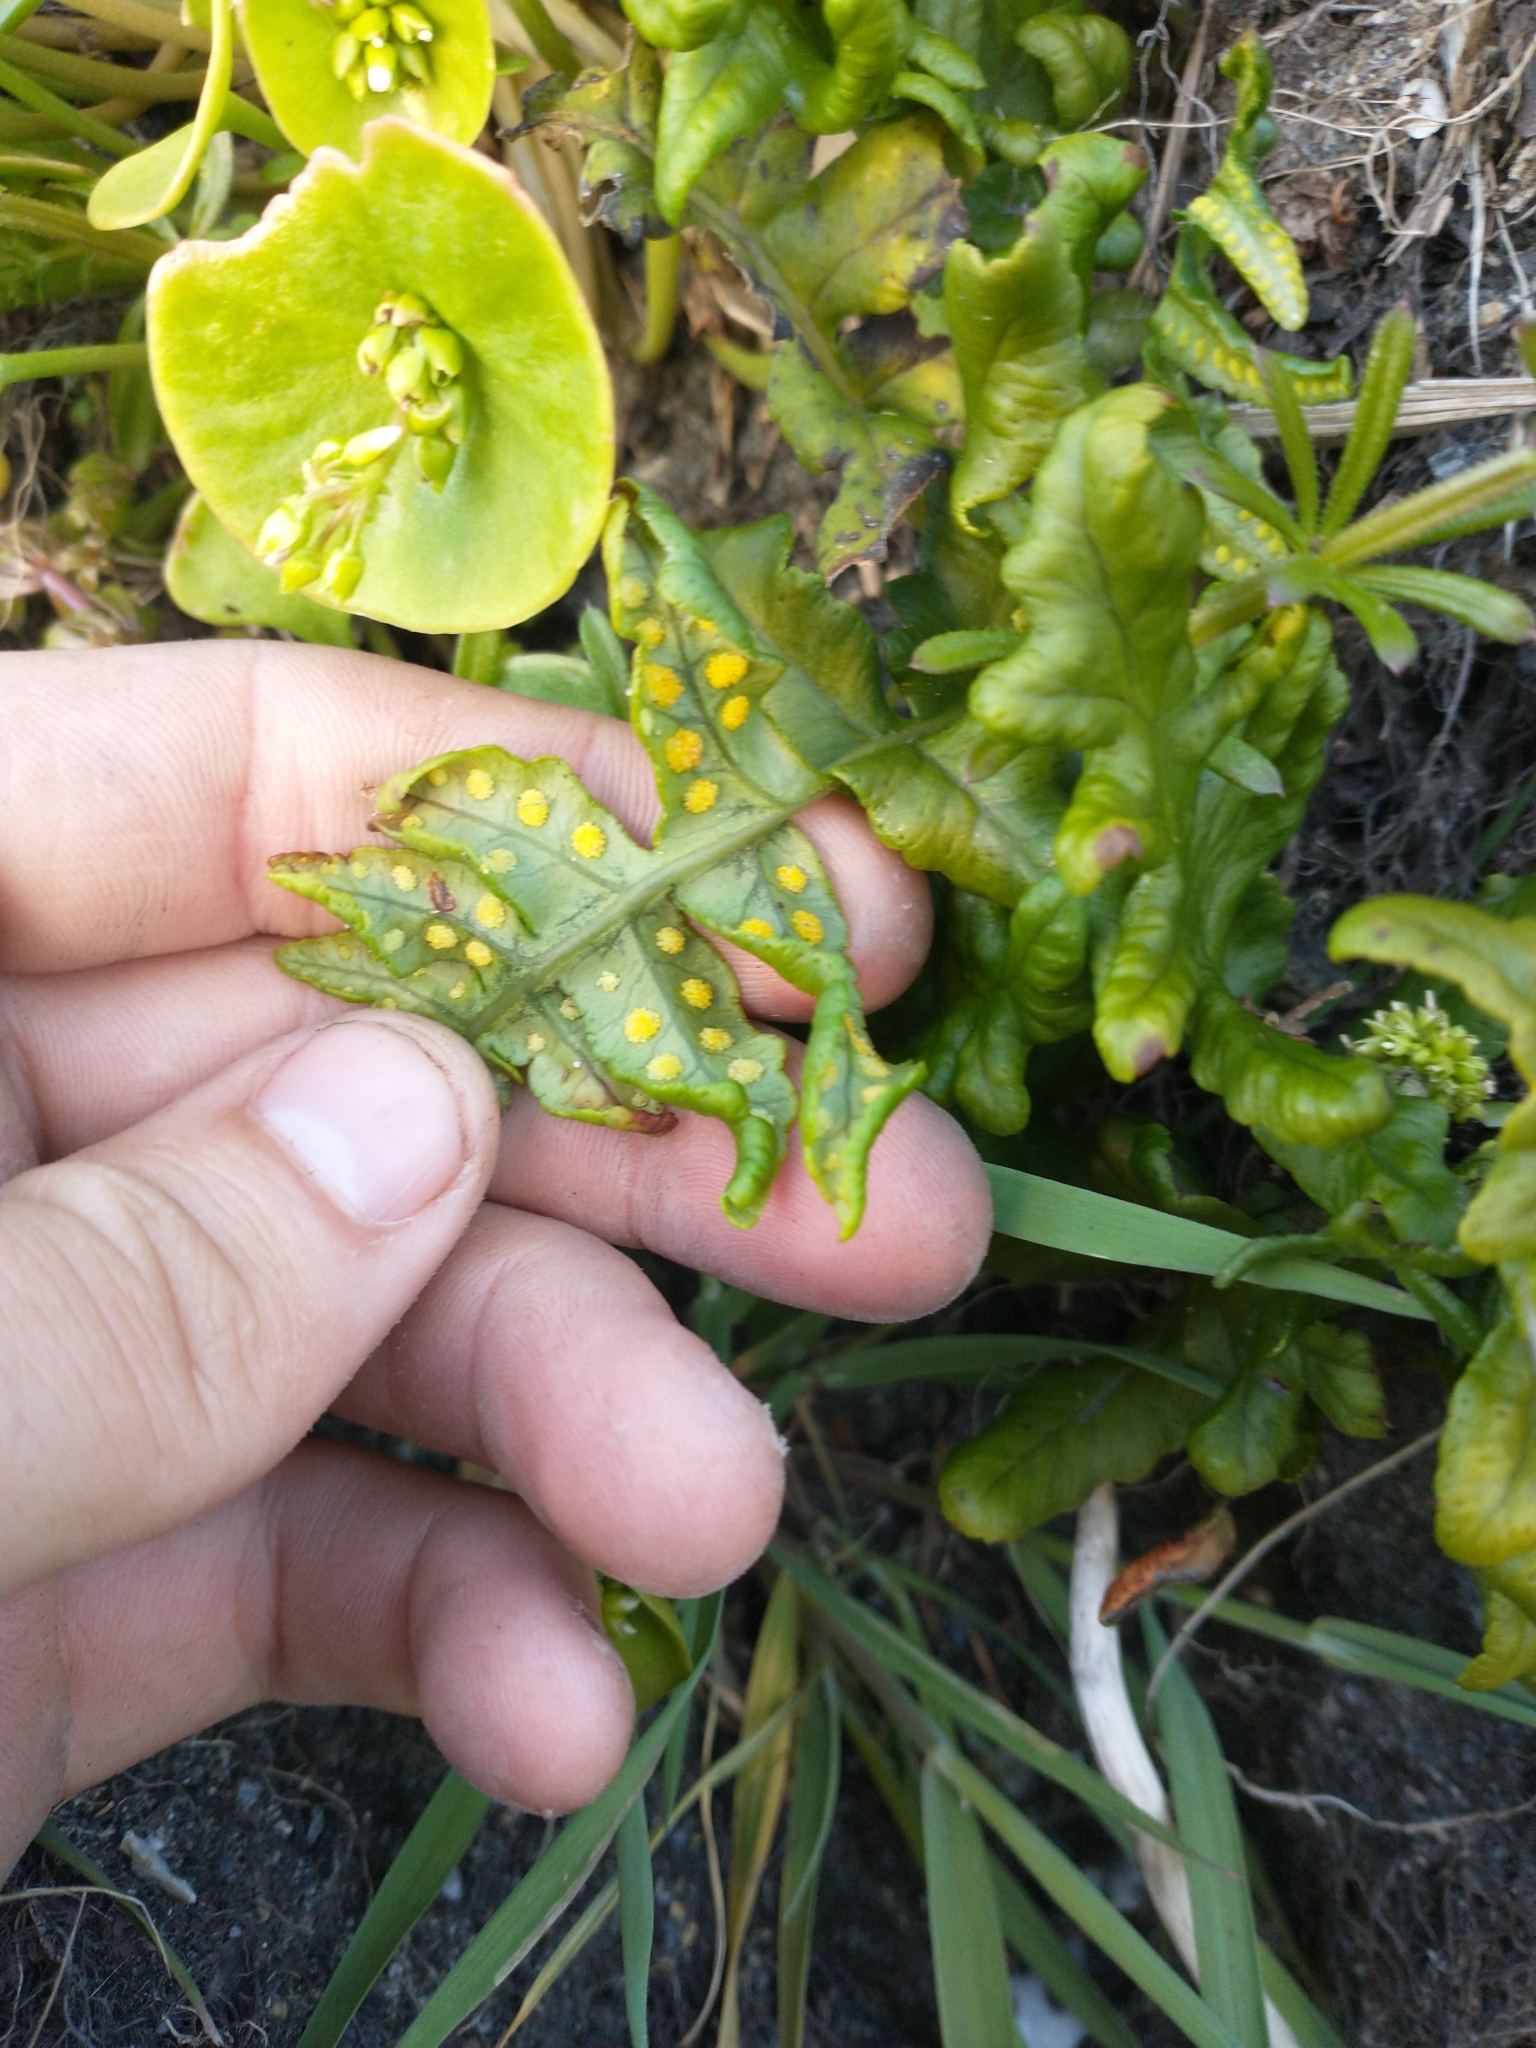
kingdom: Plantae
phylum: Tracheophyta
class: Magnoliopsida
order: Caryophyllales
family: Montiaceae
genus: Claytonia
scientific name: Claytonia perfoliata
